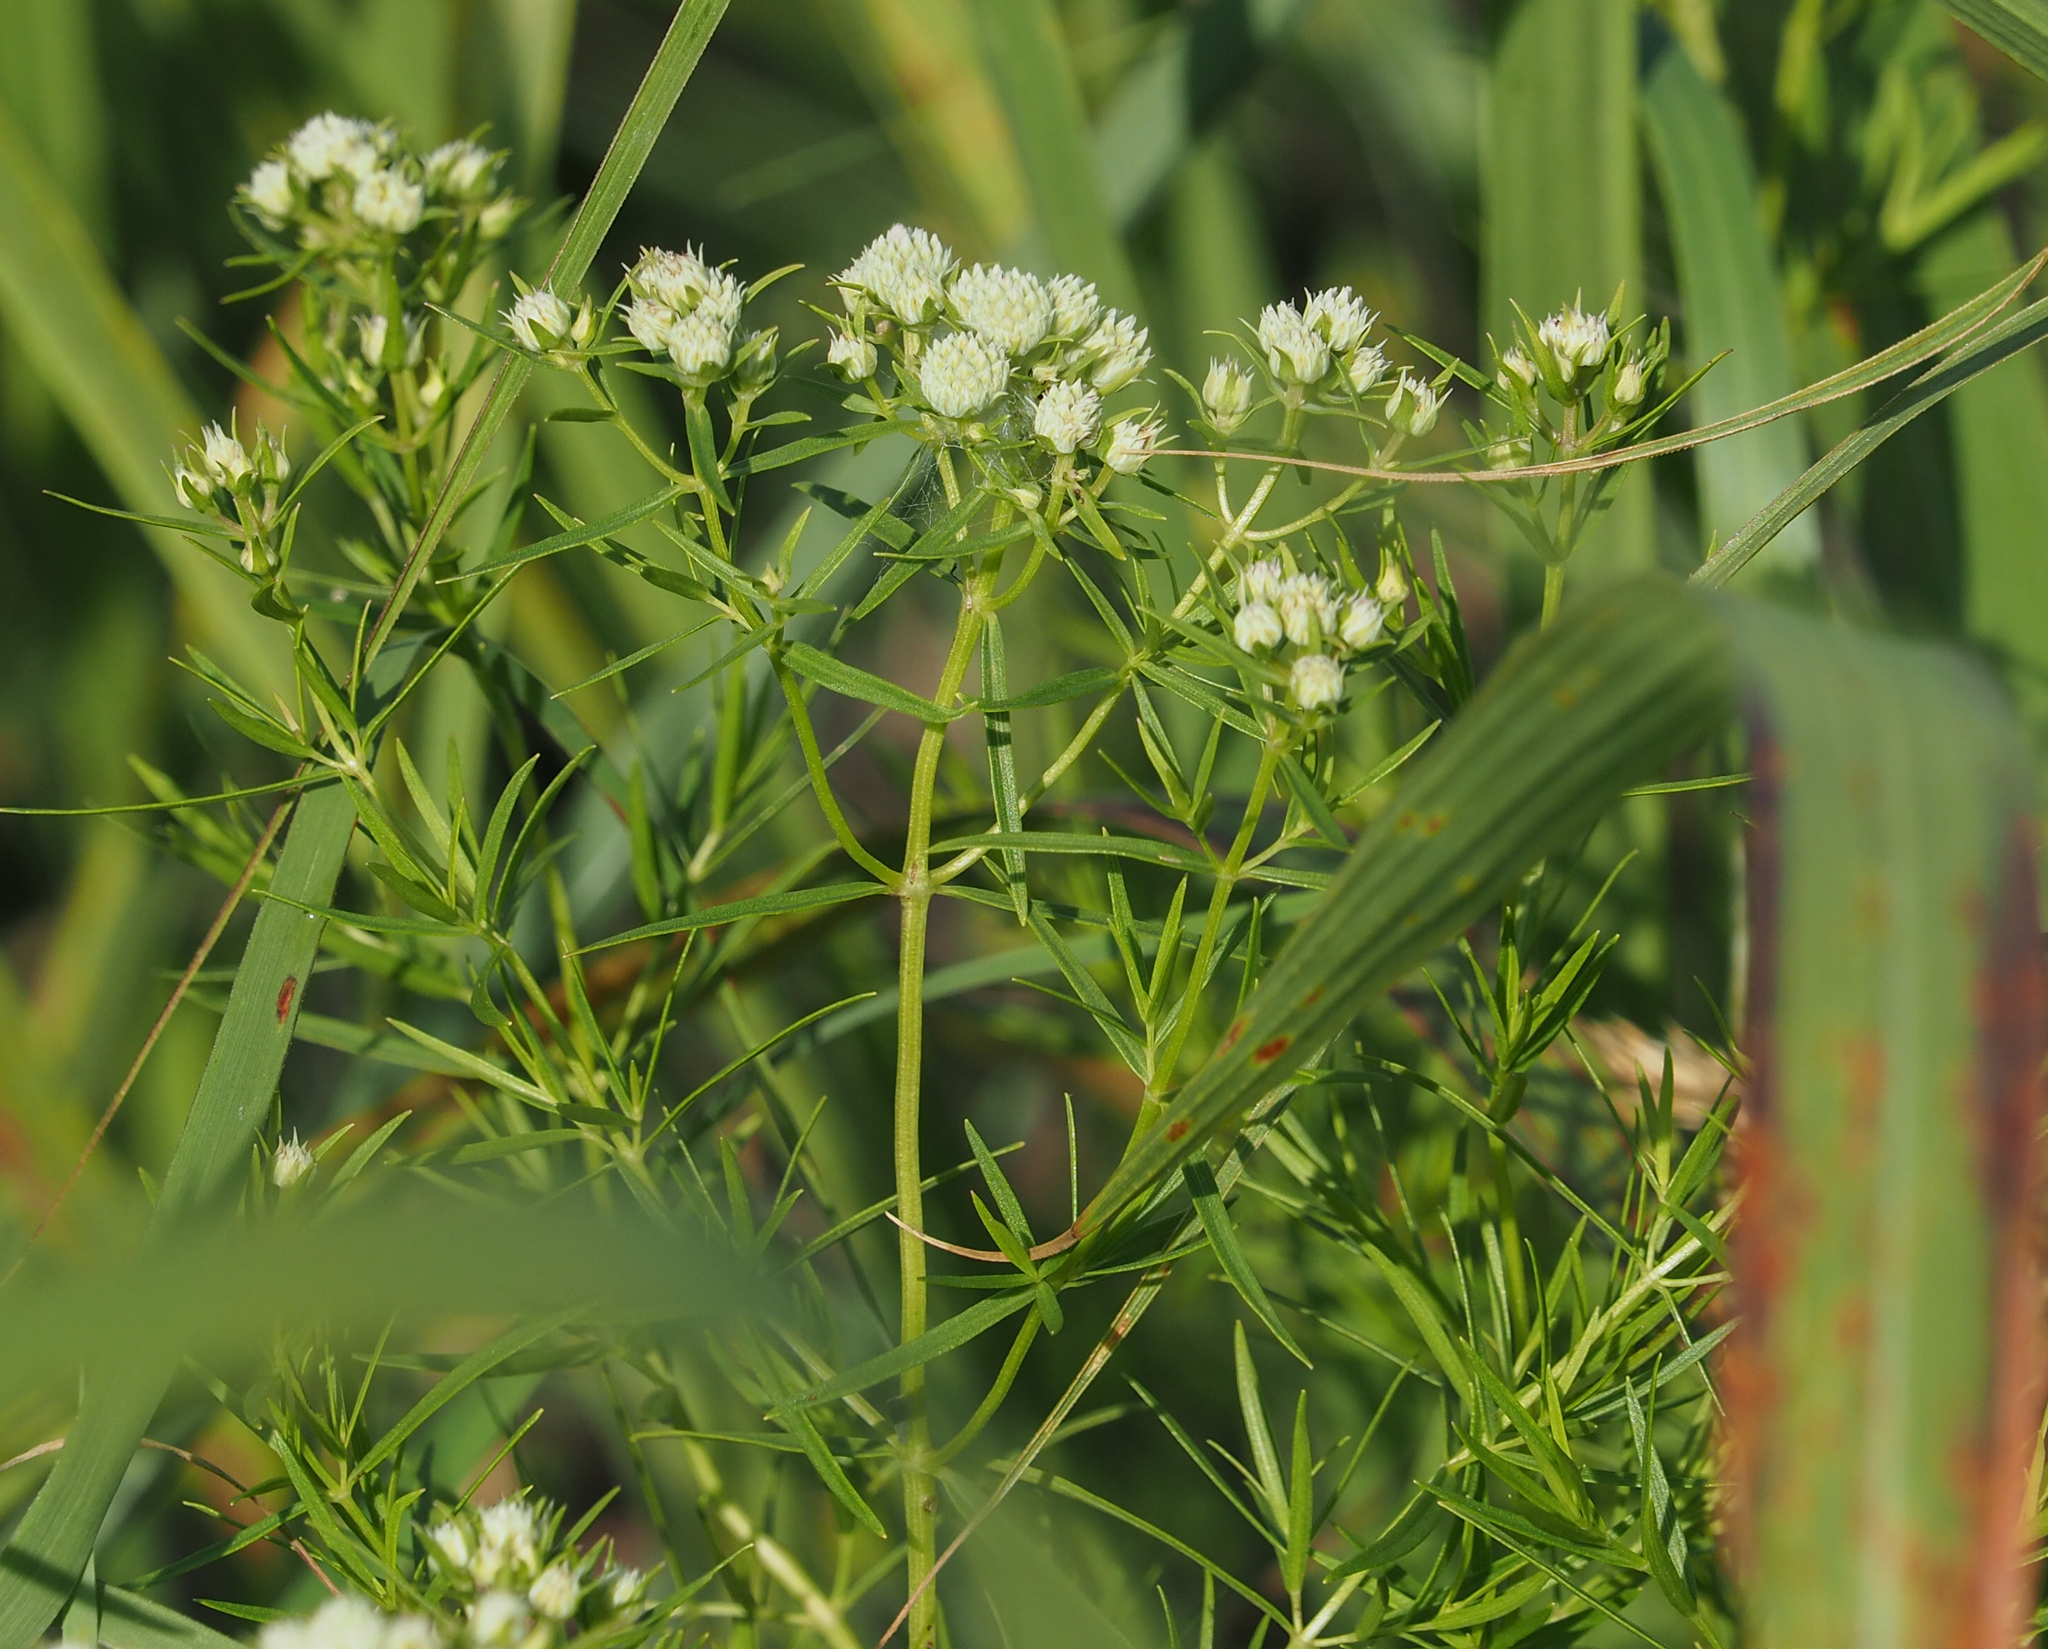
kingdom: Plantae
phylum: Tracheophyta
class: Magnoliopsida
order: Lamiales
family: Lamiaceae
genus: Pycnanthemum
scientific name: Pycnanthemum tenuifolium
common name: Narrow-leaf mountain-mint
